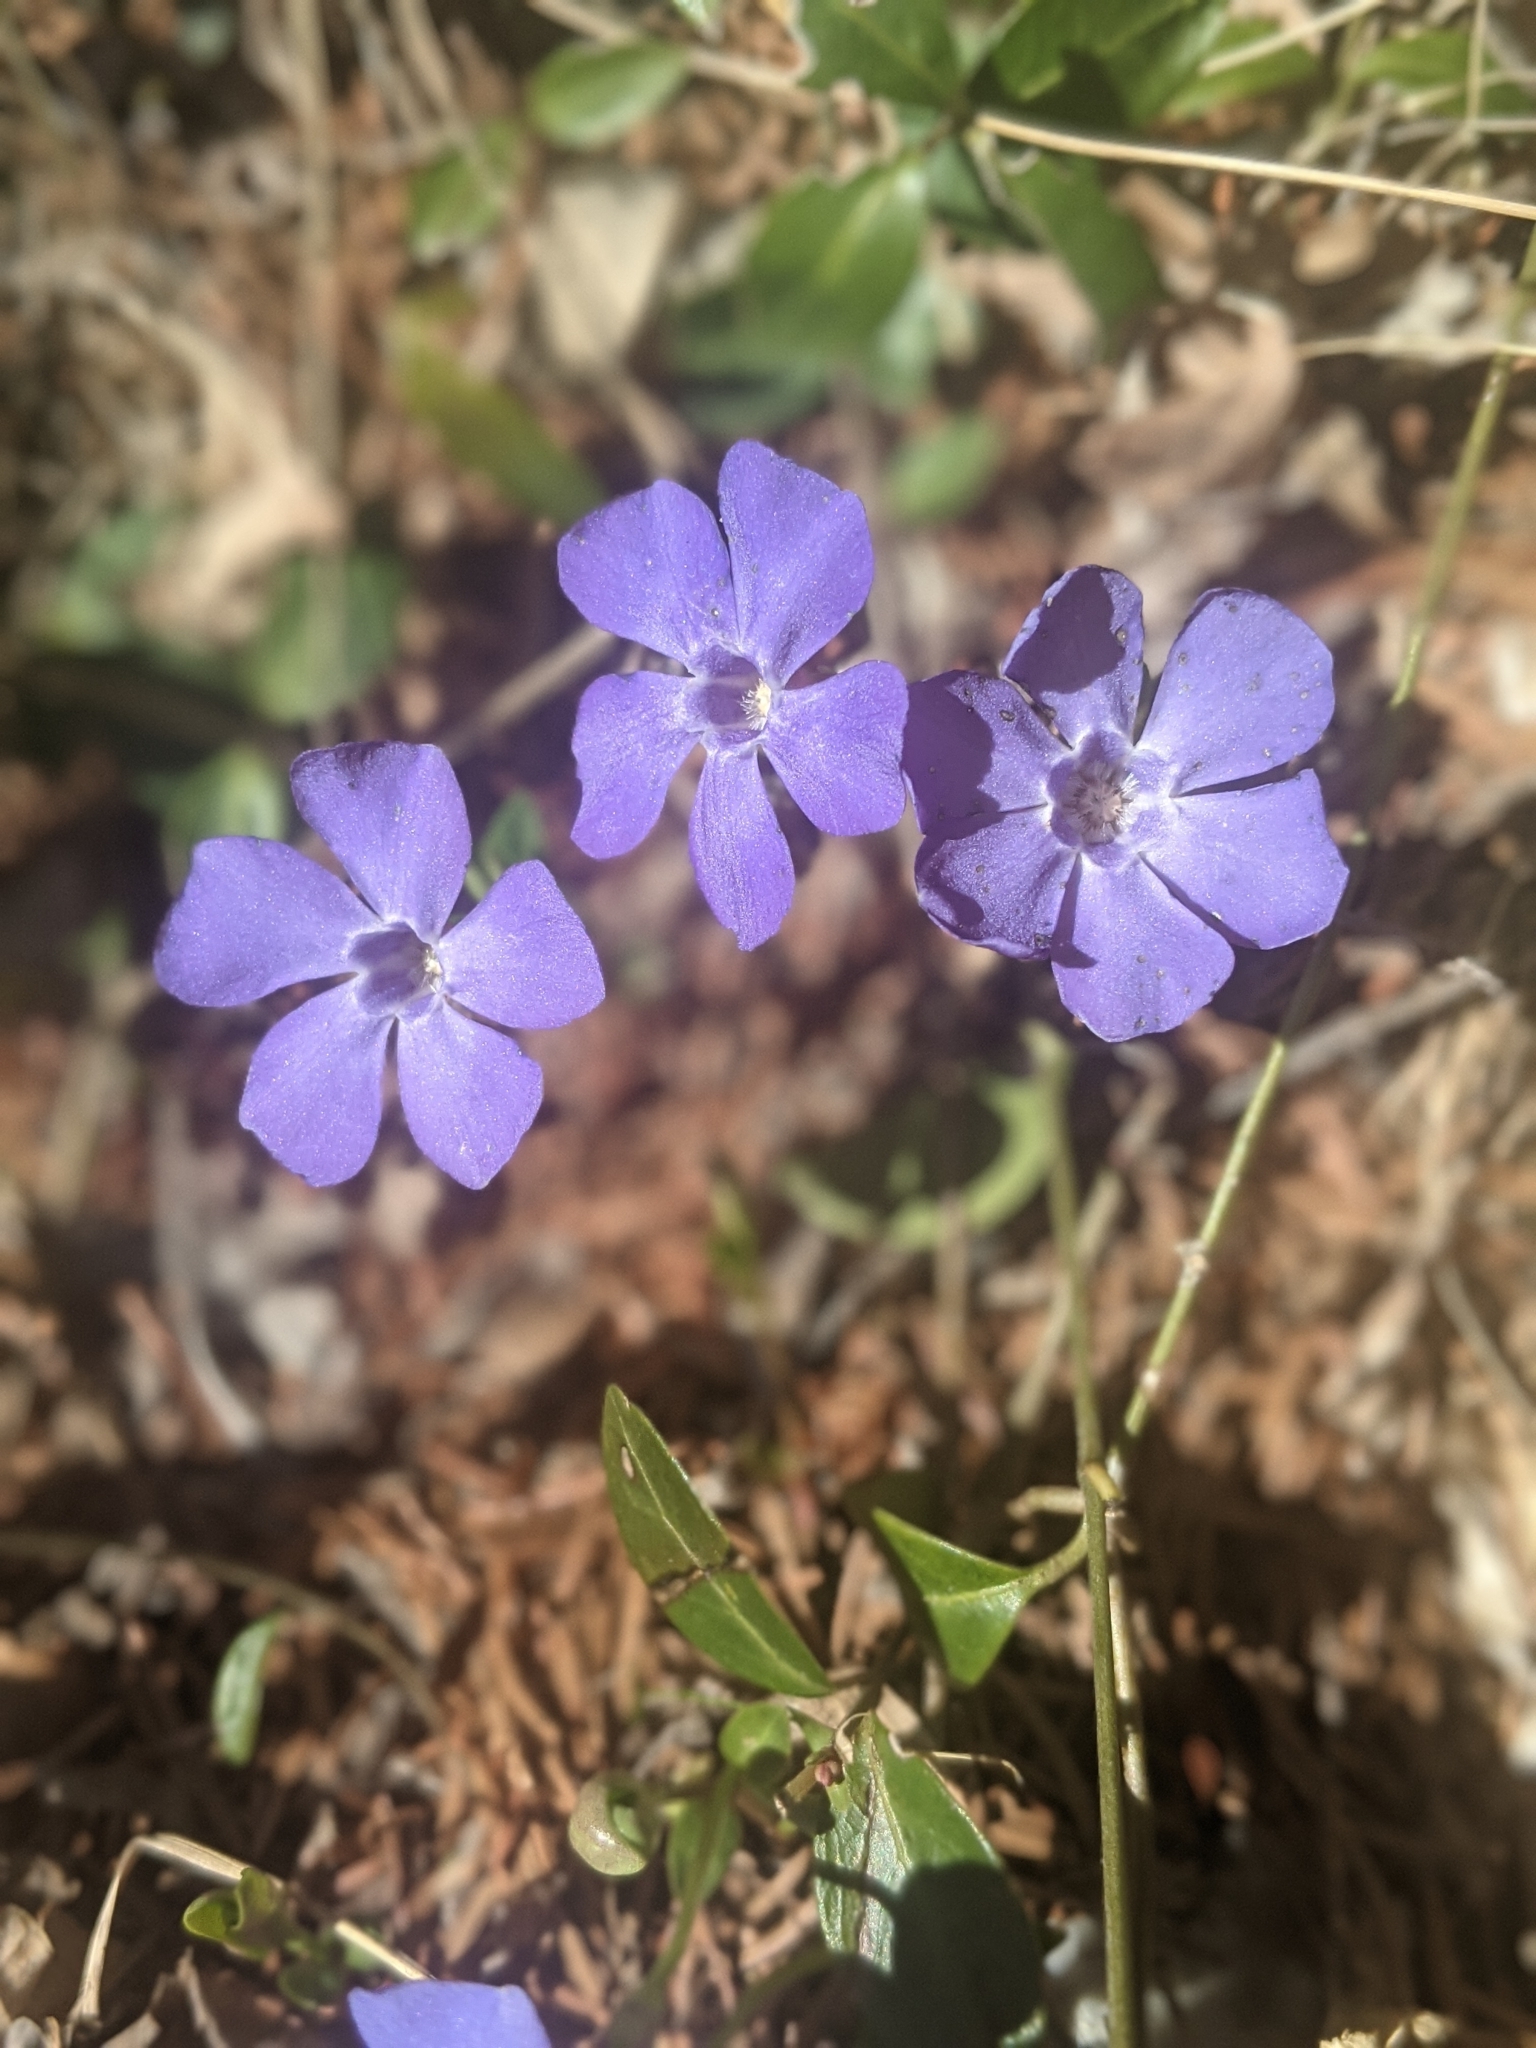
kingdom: Plantae
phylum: Tracheophyta
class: Magnoliopsida
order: Gentianales
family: Apocynaceae
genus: Vinca
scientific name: Vinca minor
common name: Lesser periwinkle
